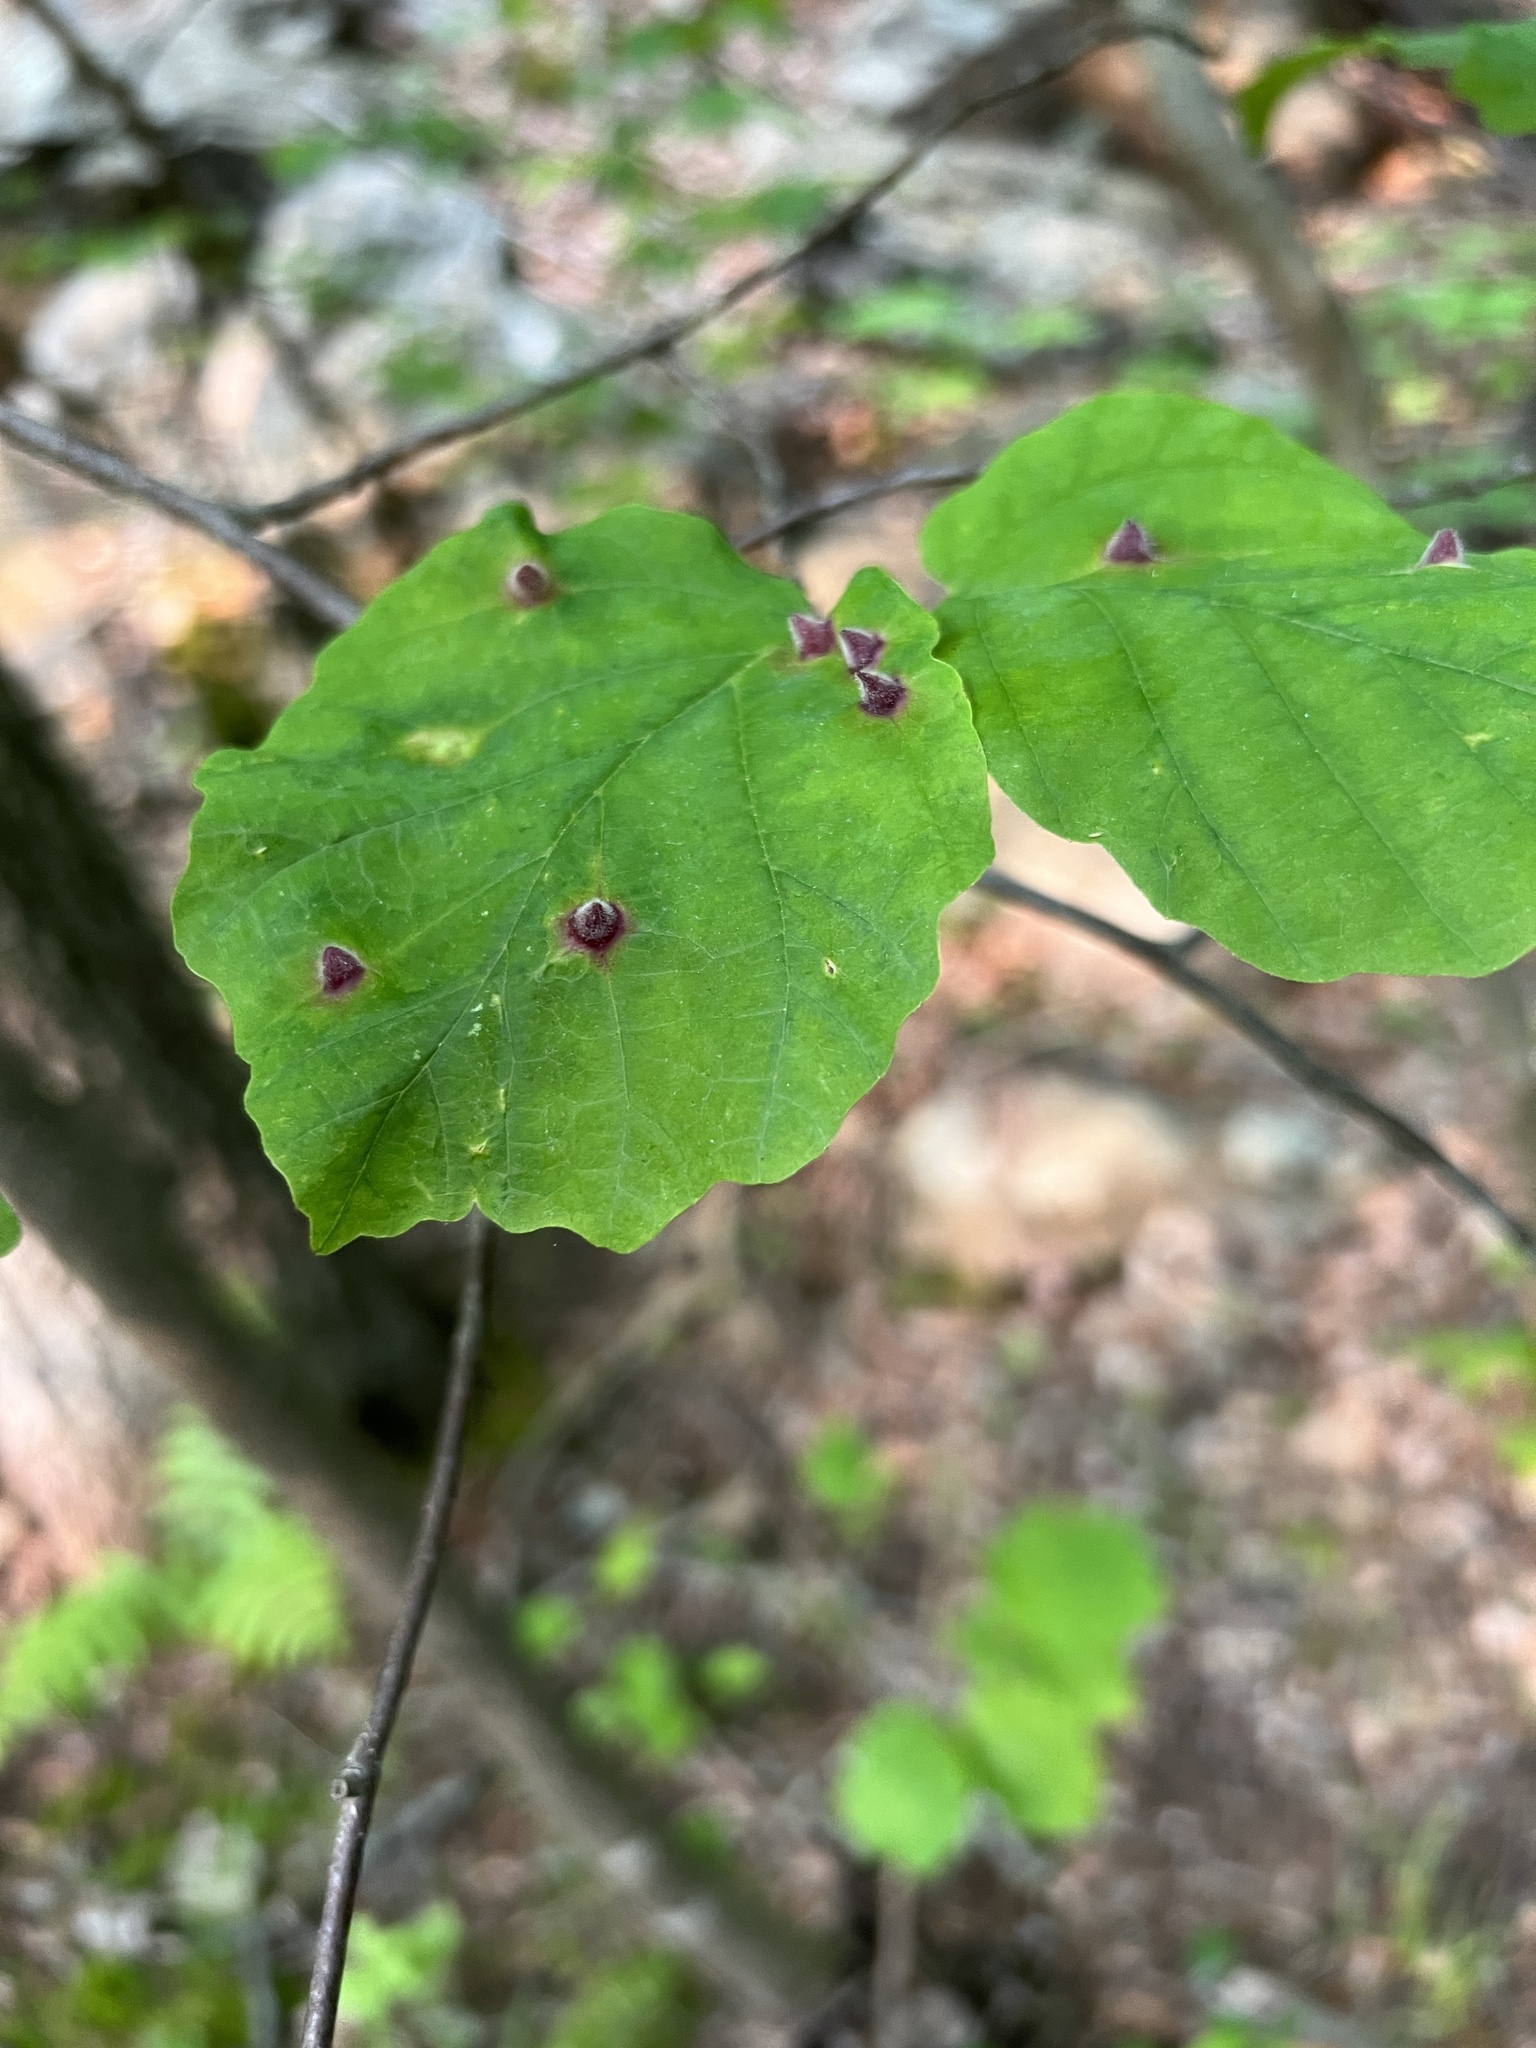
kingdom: Animalia
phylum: Arthropoda
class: Insecta
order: Hemiptera
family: Aphididae
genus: Hormaphis
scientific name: Hormaphis hamamelidis
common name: Witch-hazel cone gall aphid
